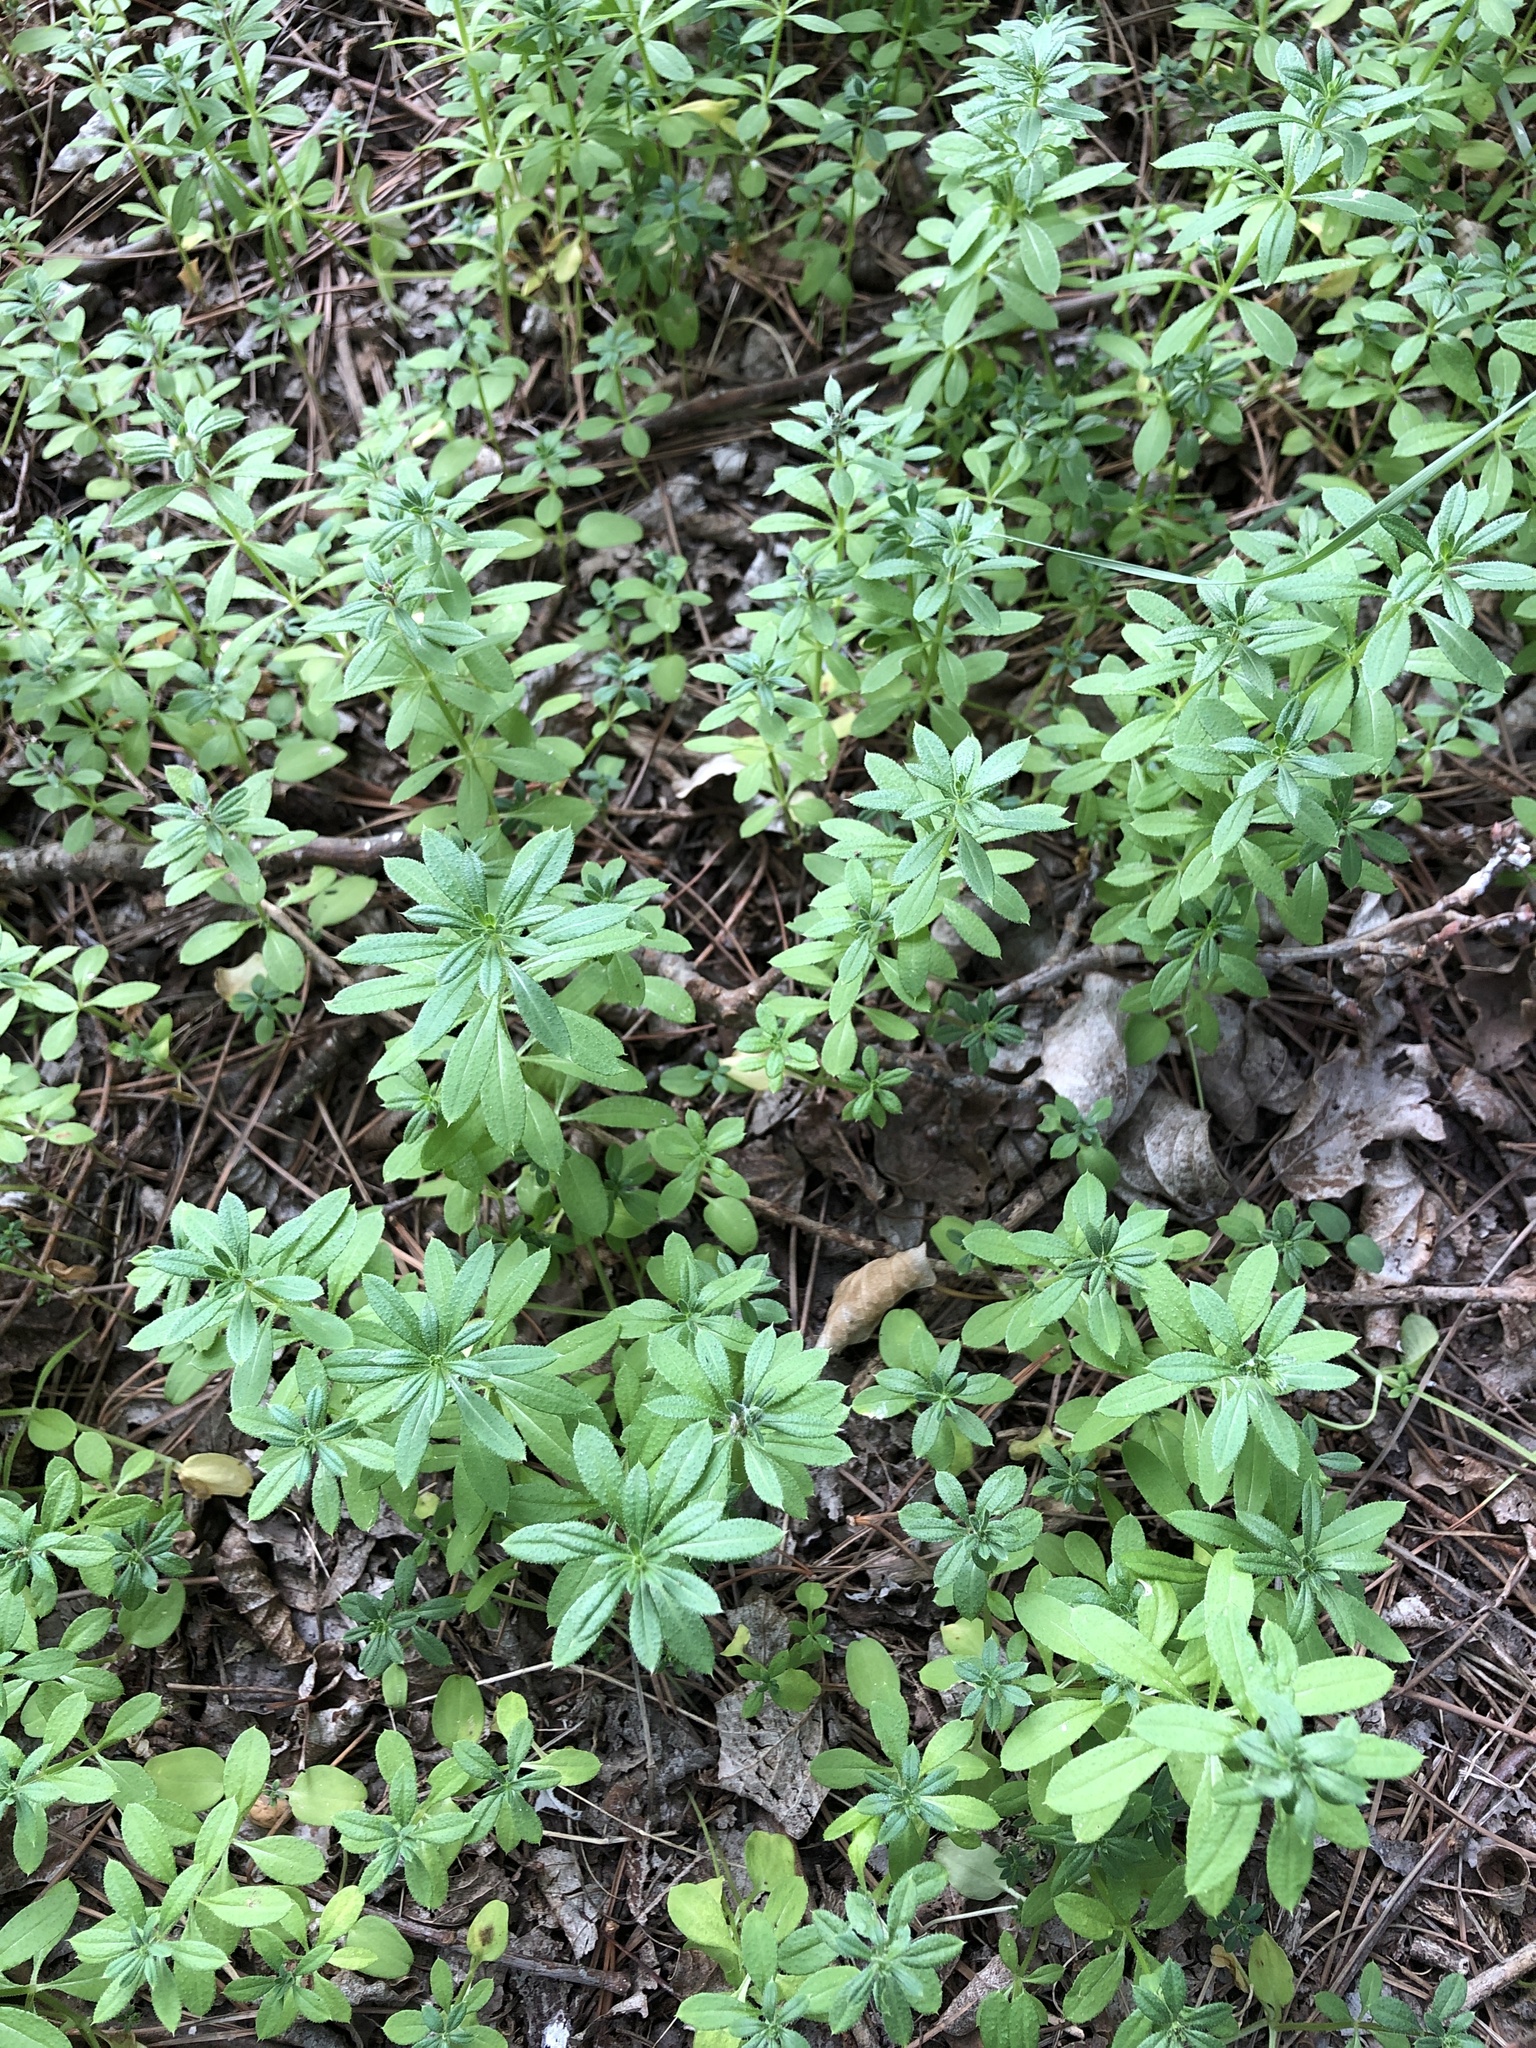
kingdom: Plantae
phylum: Tracheophyta
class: Magnoliopsida
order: Gentianales
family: Rubiaceae
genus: Galium
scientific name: Galium aparine
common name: Cleavers
